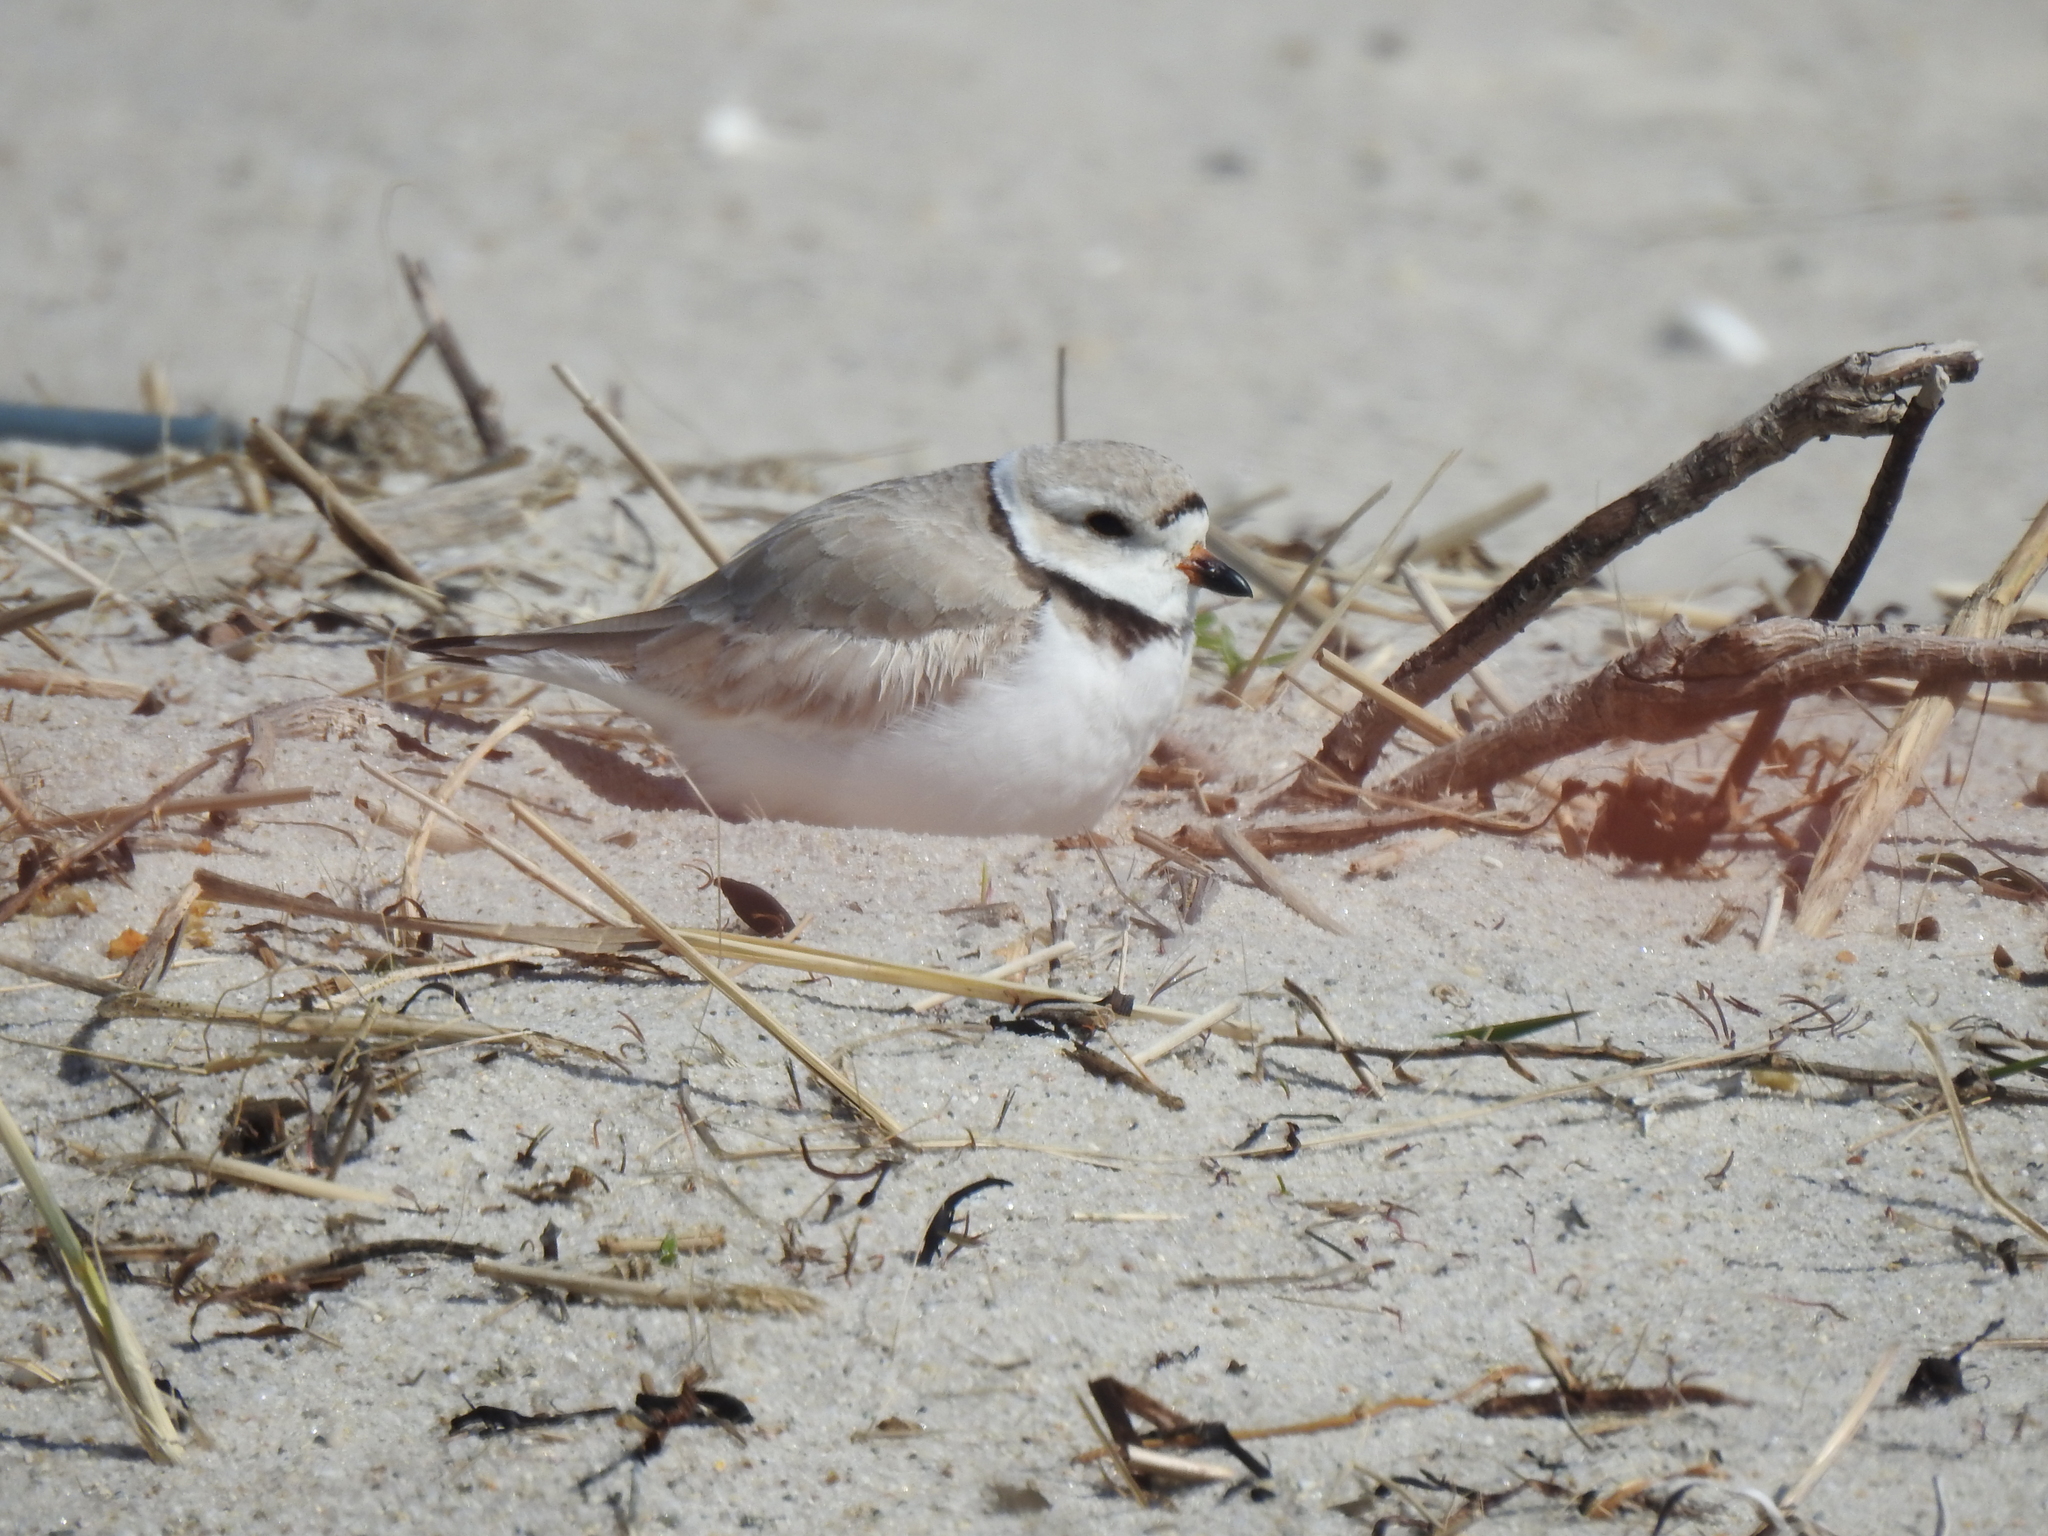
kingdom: Animalia
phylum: Chordata
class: Aves
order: Charadriiformes
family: Charadriidae
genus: Charadrius
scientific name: Charadrius melodus
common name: Piping plover
